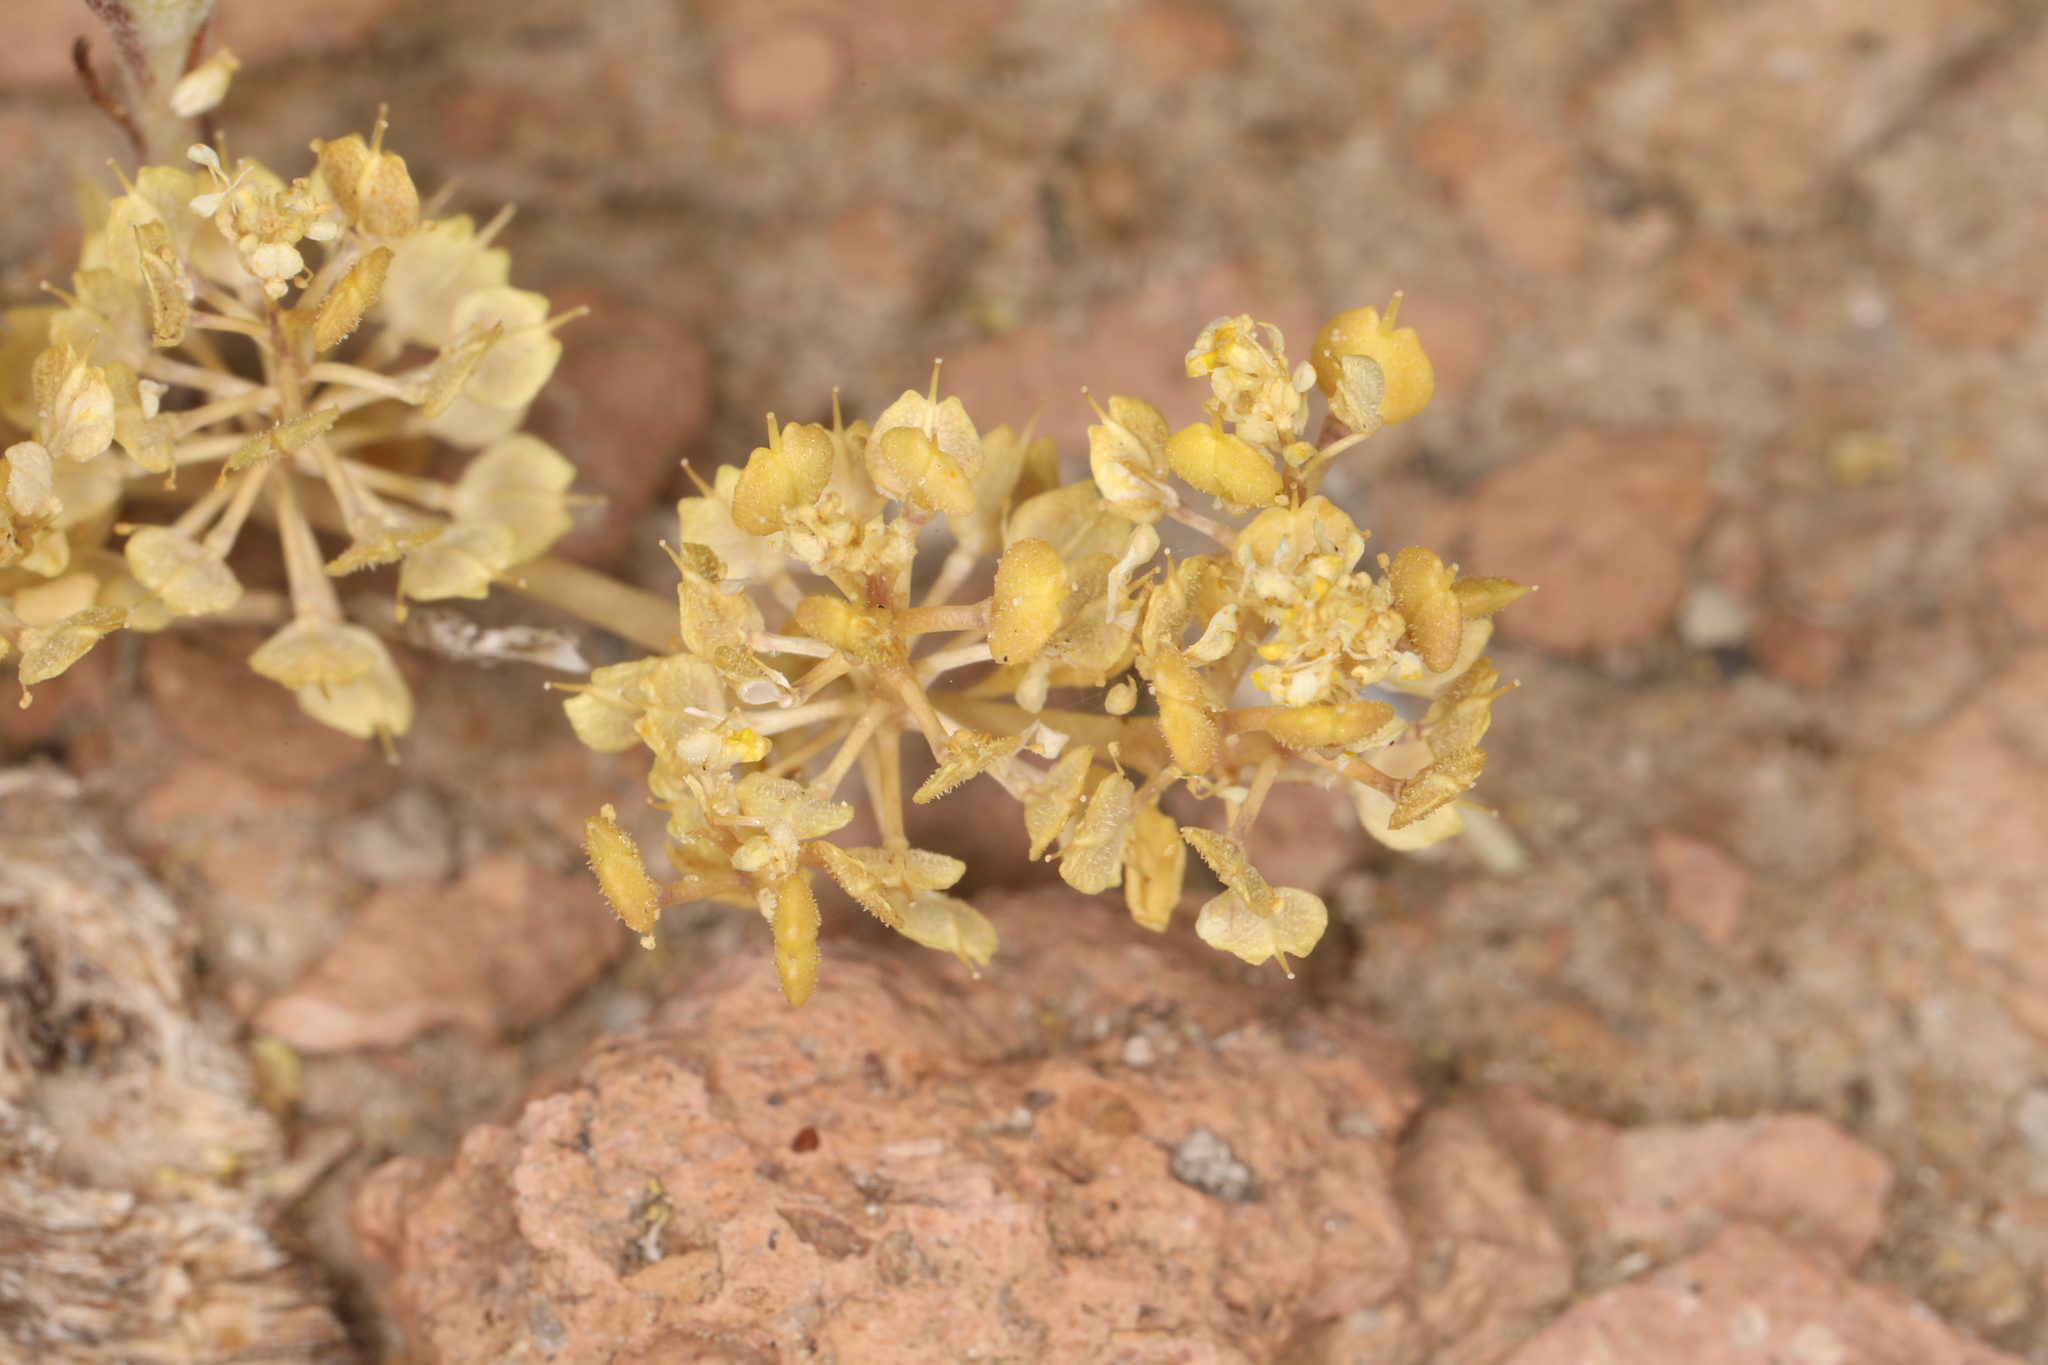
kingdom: Plantae
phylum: Tracheophyta
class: Magnoliopsida
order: Brassicales
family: Brassicaceae
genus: Lepidium
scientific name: Lepidium flavum
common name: Yellow pepperwort
